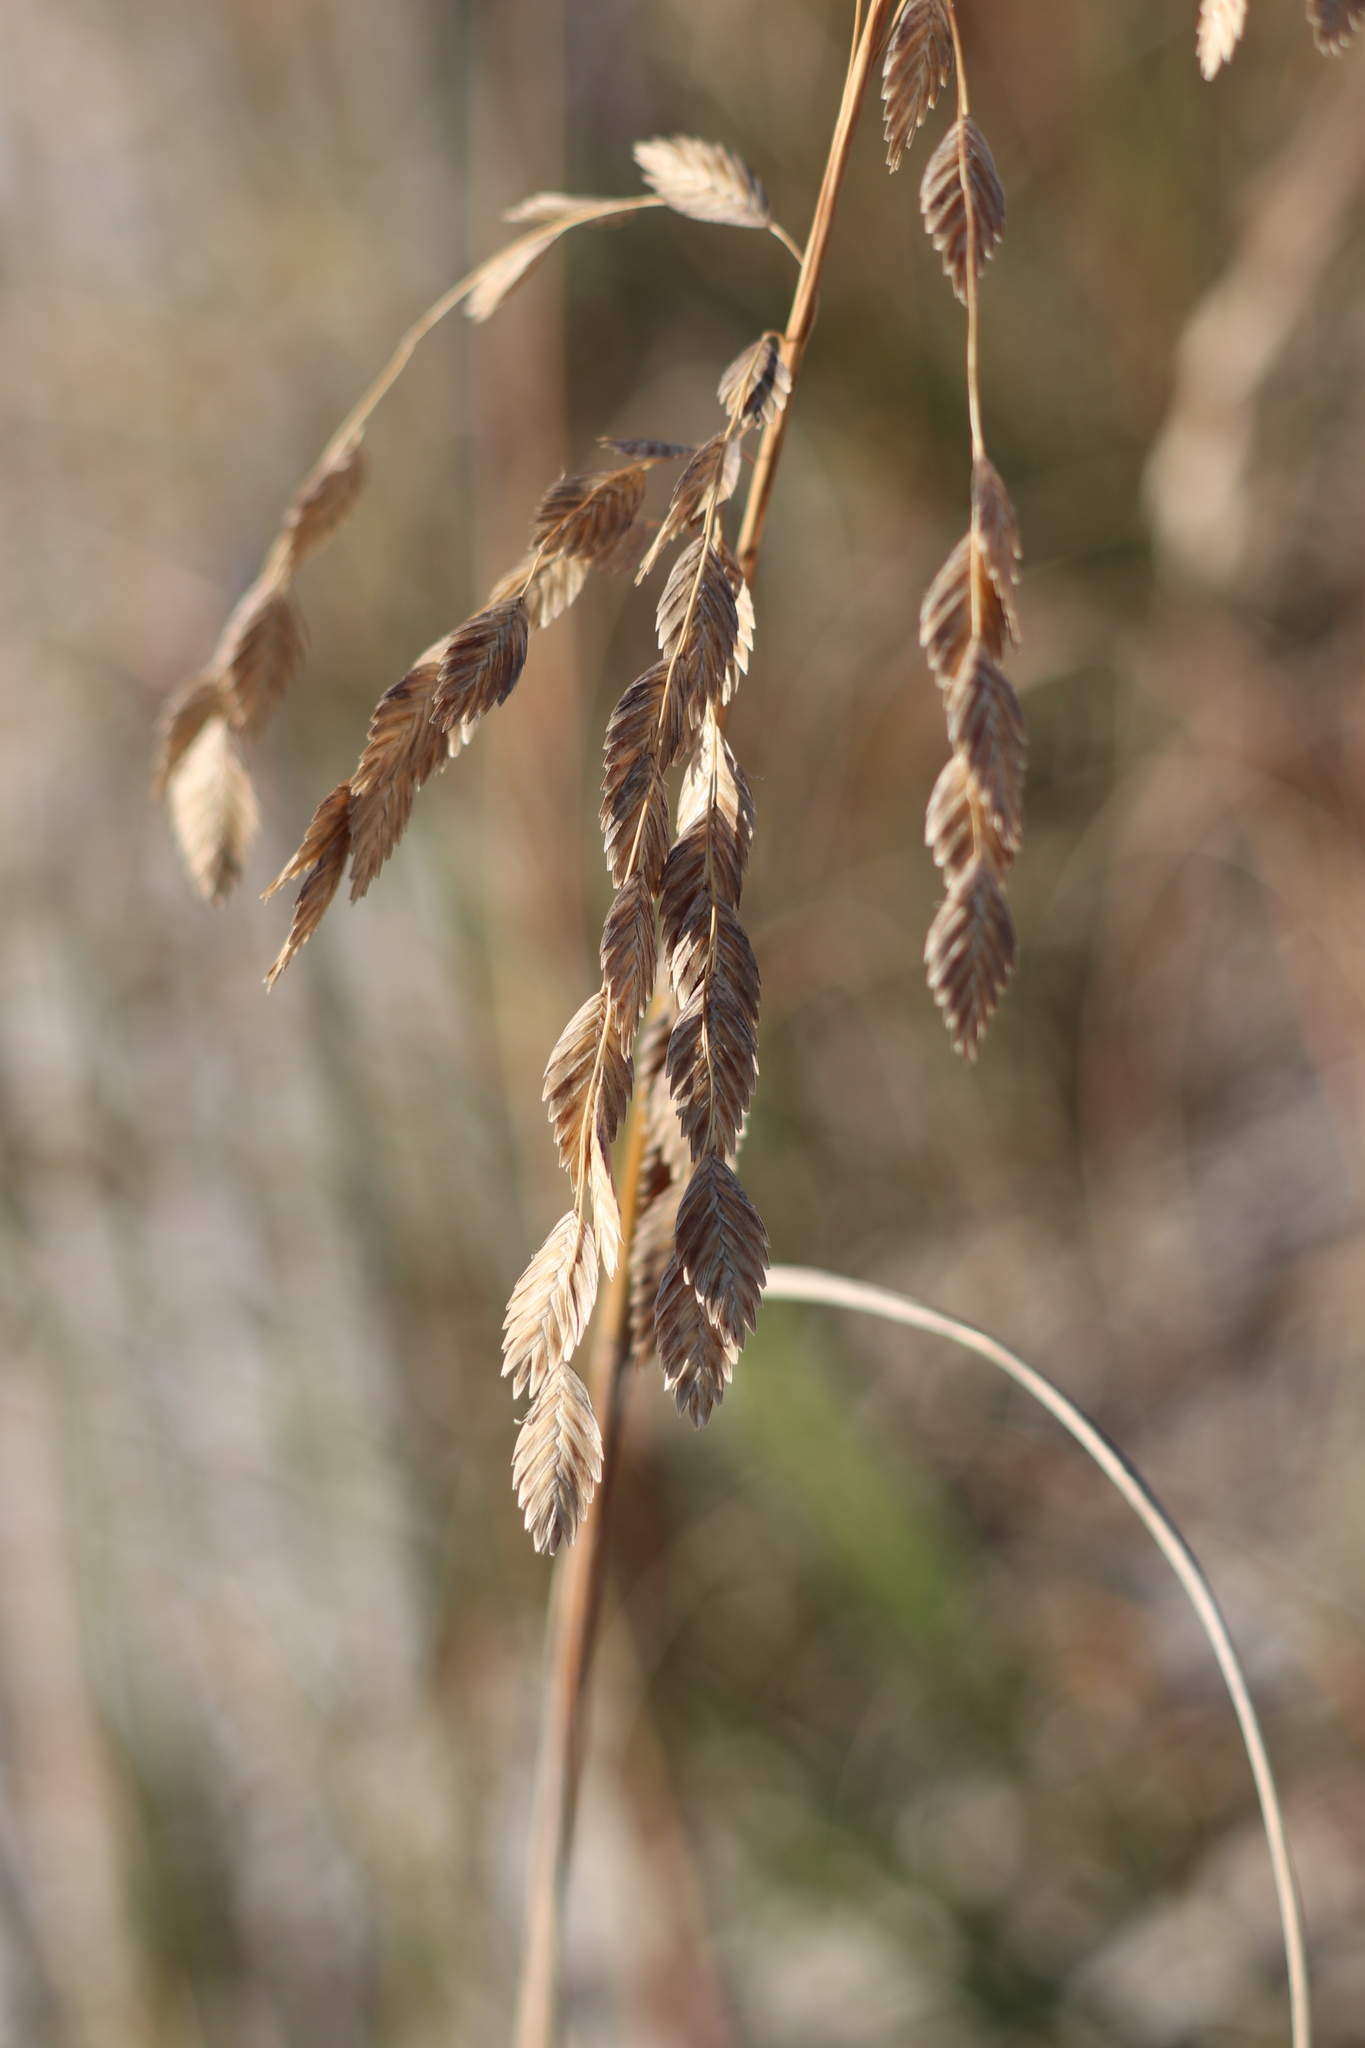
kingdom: Plantae
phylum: Tracheophyta
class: Liliopsida
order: Poales
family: Poaceae
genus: Uniola
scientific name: Uniola paniculata
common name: Seaside-oats
